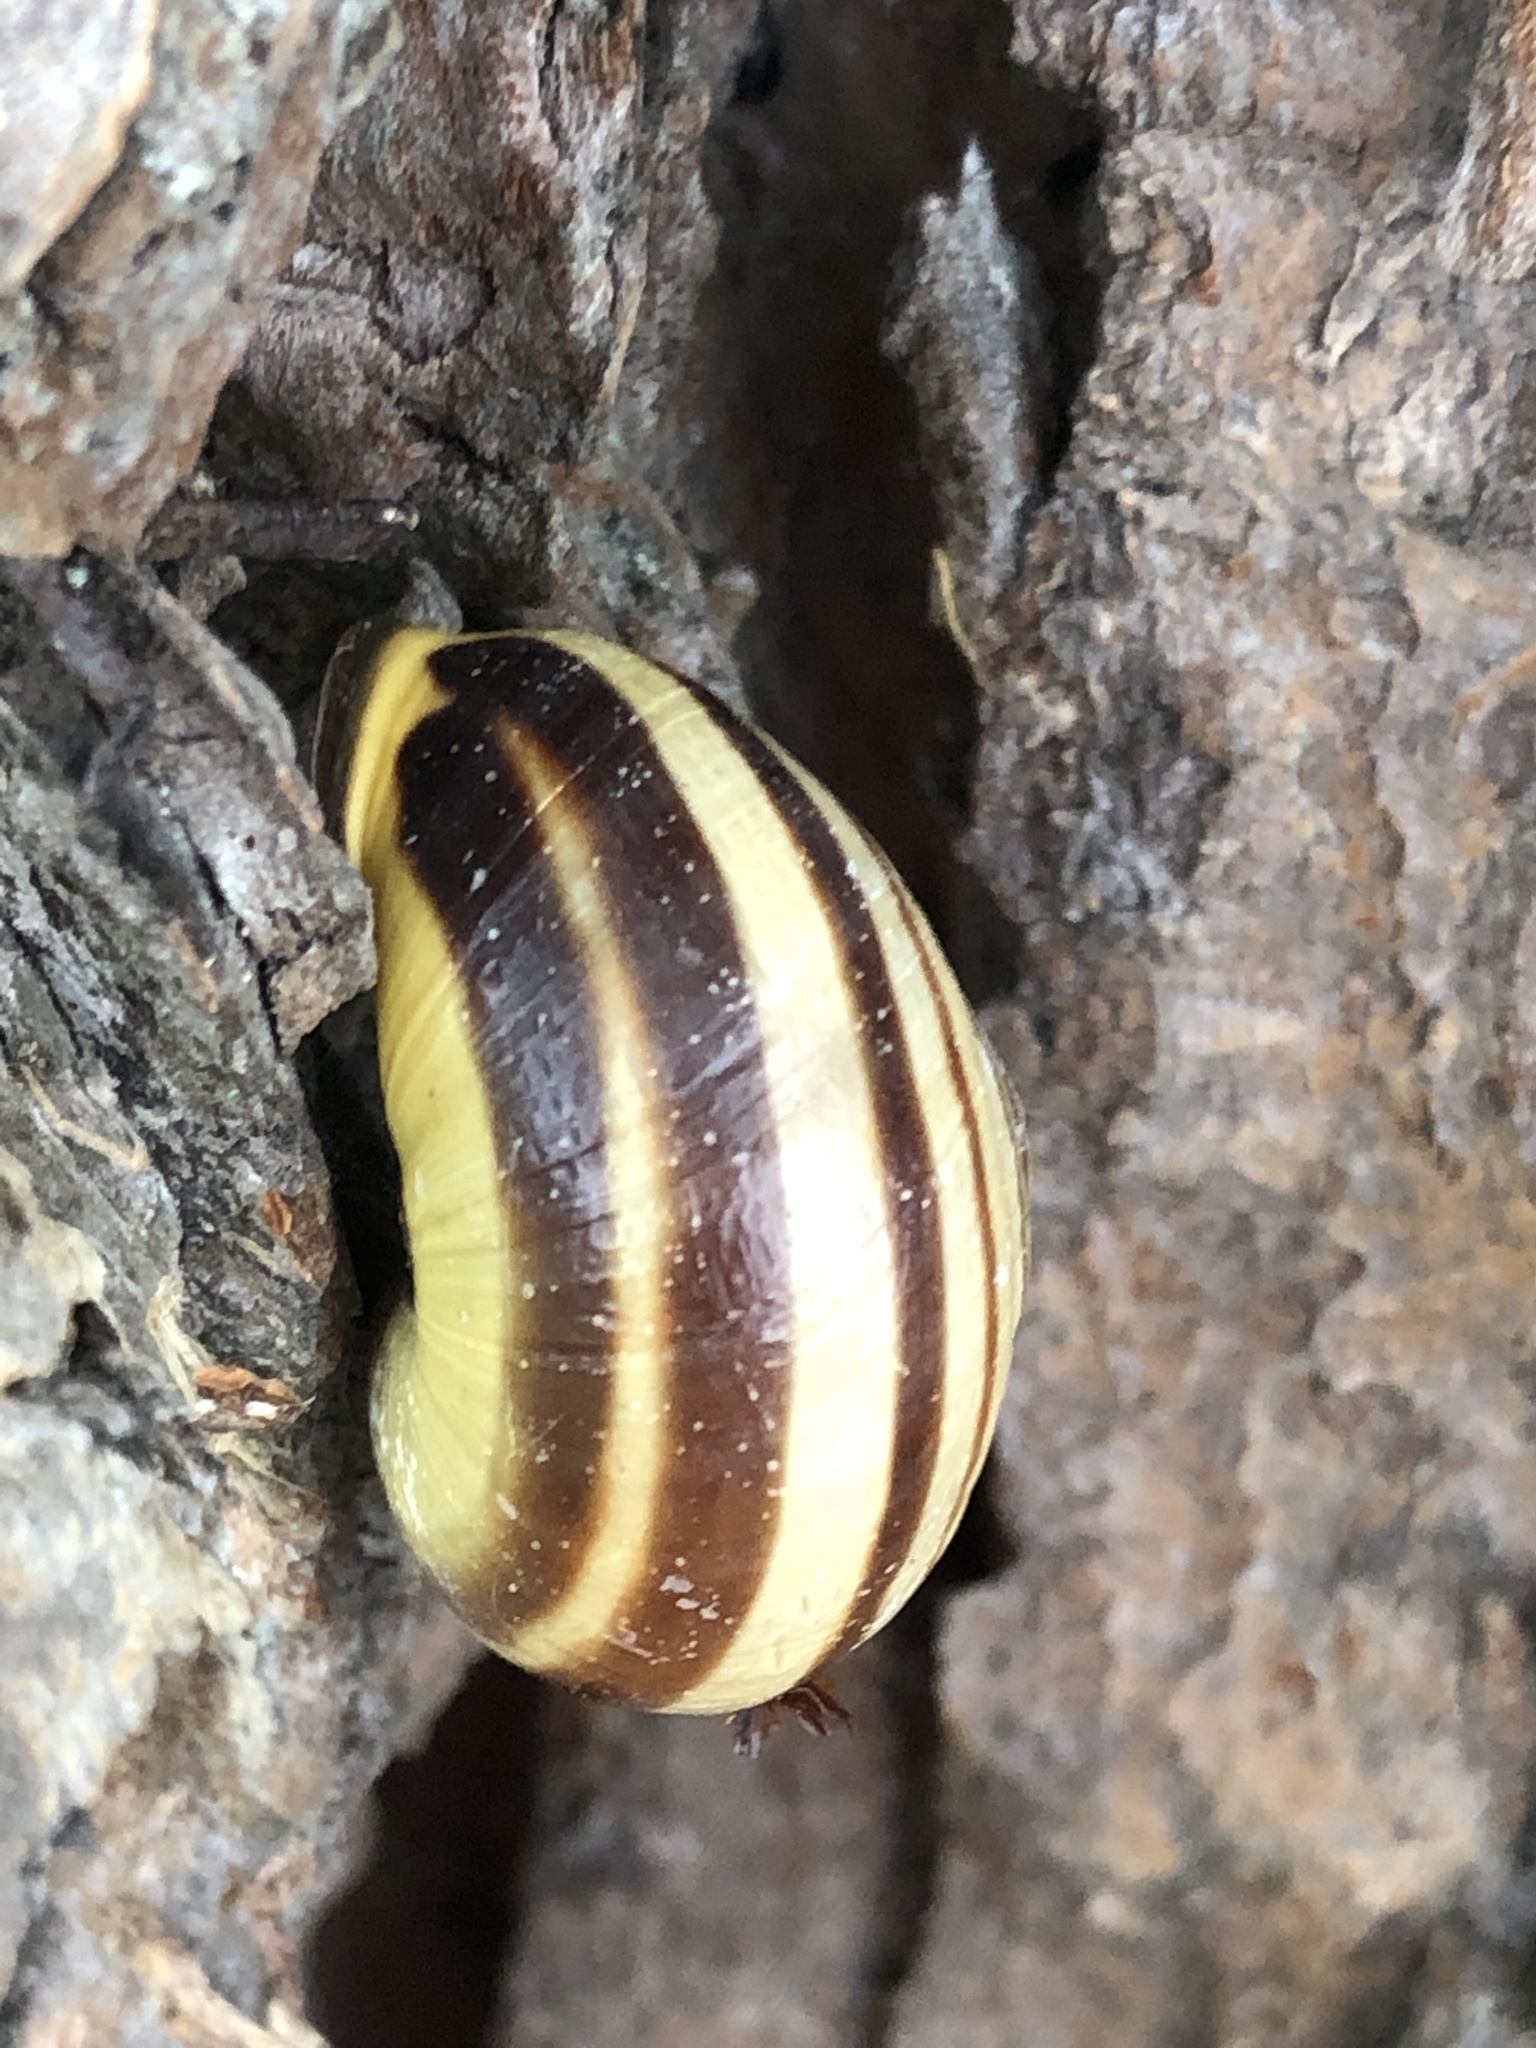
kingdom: Animalia
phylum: Mollusca
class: Gastropoda
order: Stylommatophora
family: Helicidae
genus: Cepaea
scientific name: Cepaea nemoralis
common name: Grovesnail
